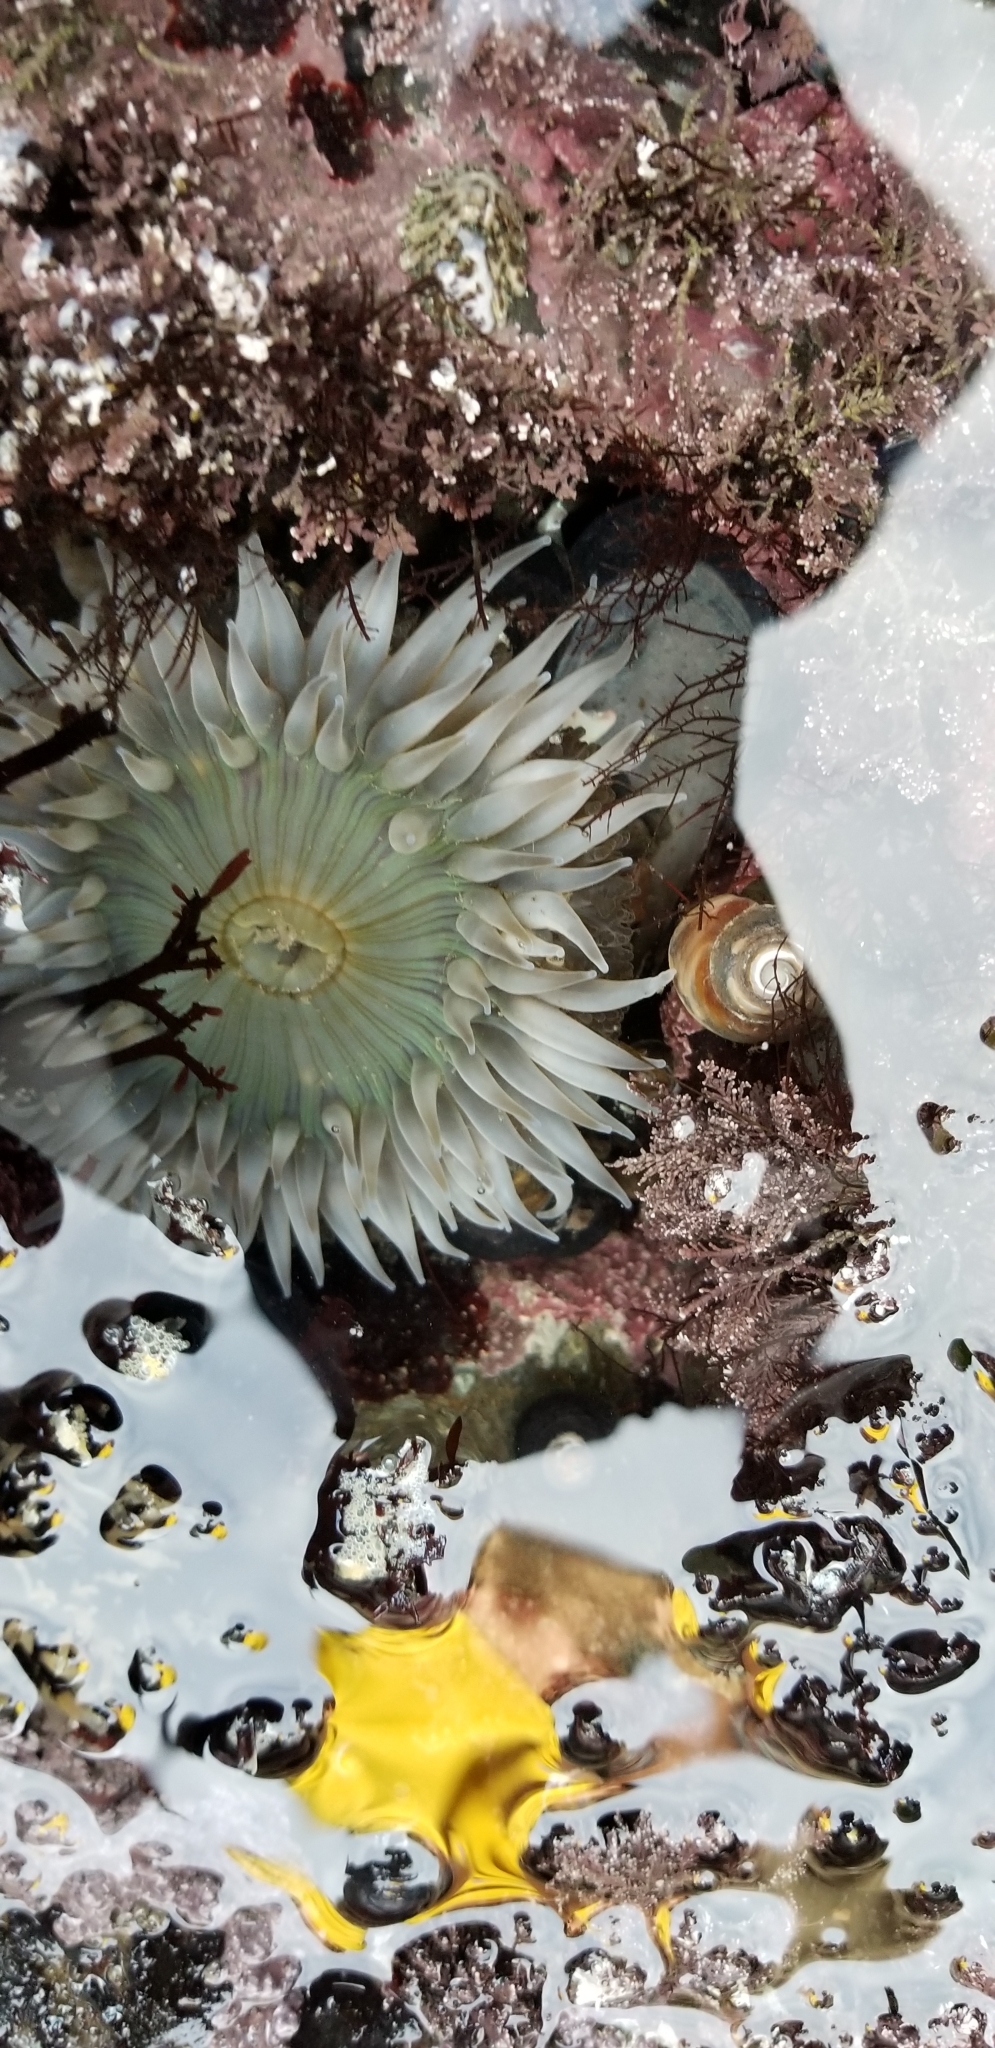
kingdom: Animalia
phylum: Cnidaria
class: Anthozoa
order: Actiniaria
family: Actiniidae
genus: Anthopleura
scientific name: Anthopleura sola
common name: Sun anemone
